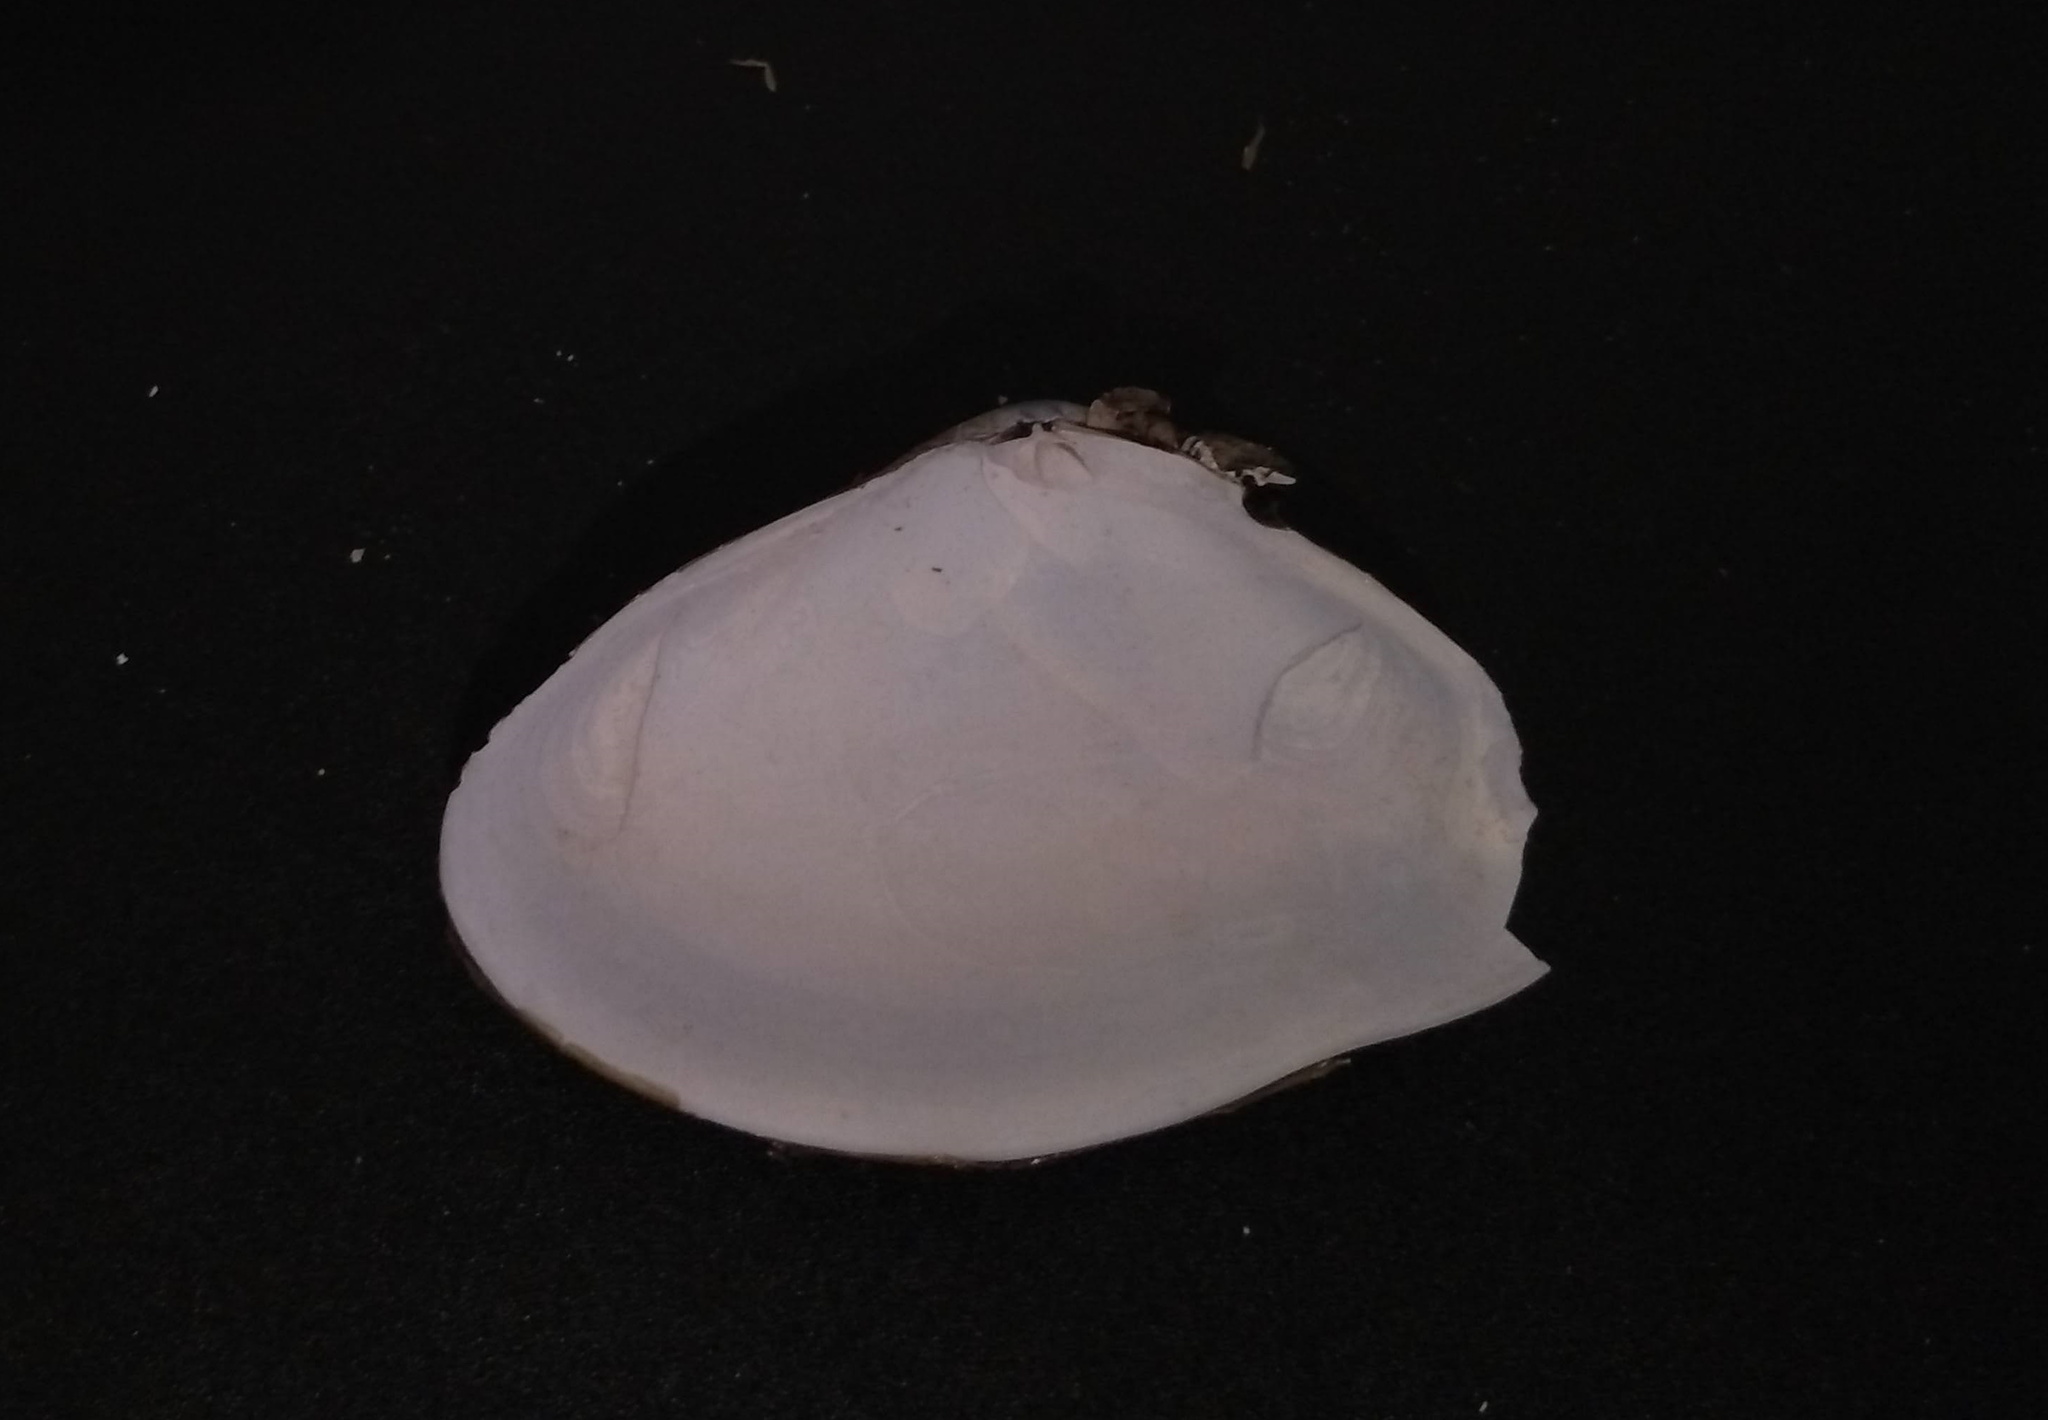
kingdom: Animalia
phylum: Mollusca
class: Bivalvia
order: Cardiida
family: Donacidae
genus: Iphigenia
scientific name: Iphigenia brasiliensis
